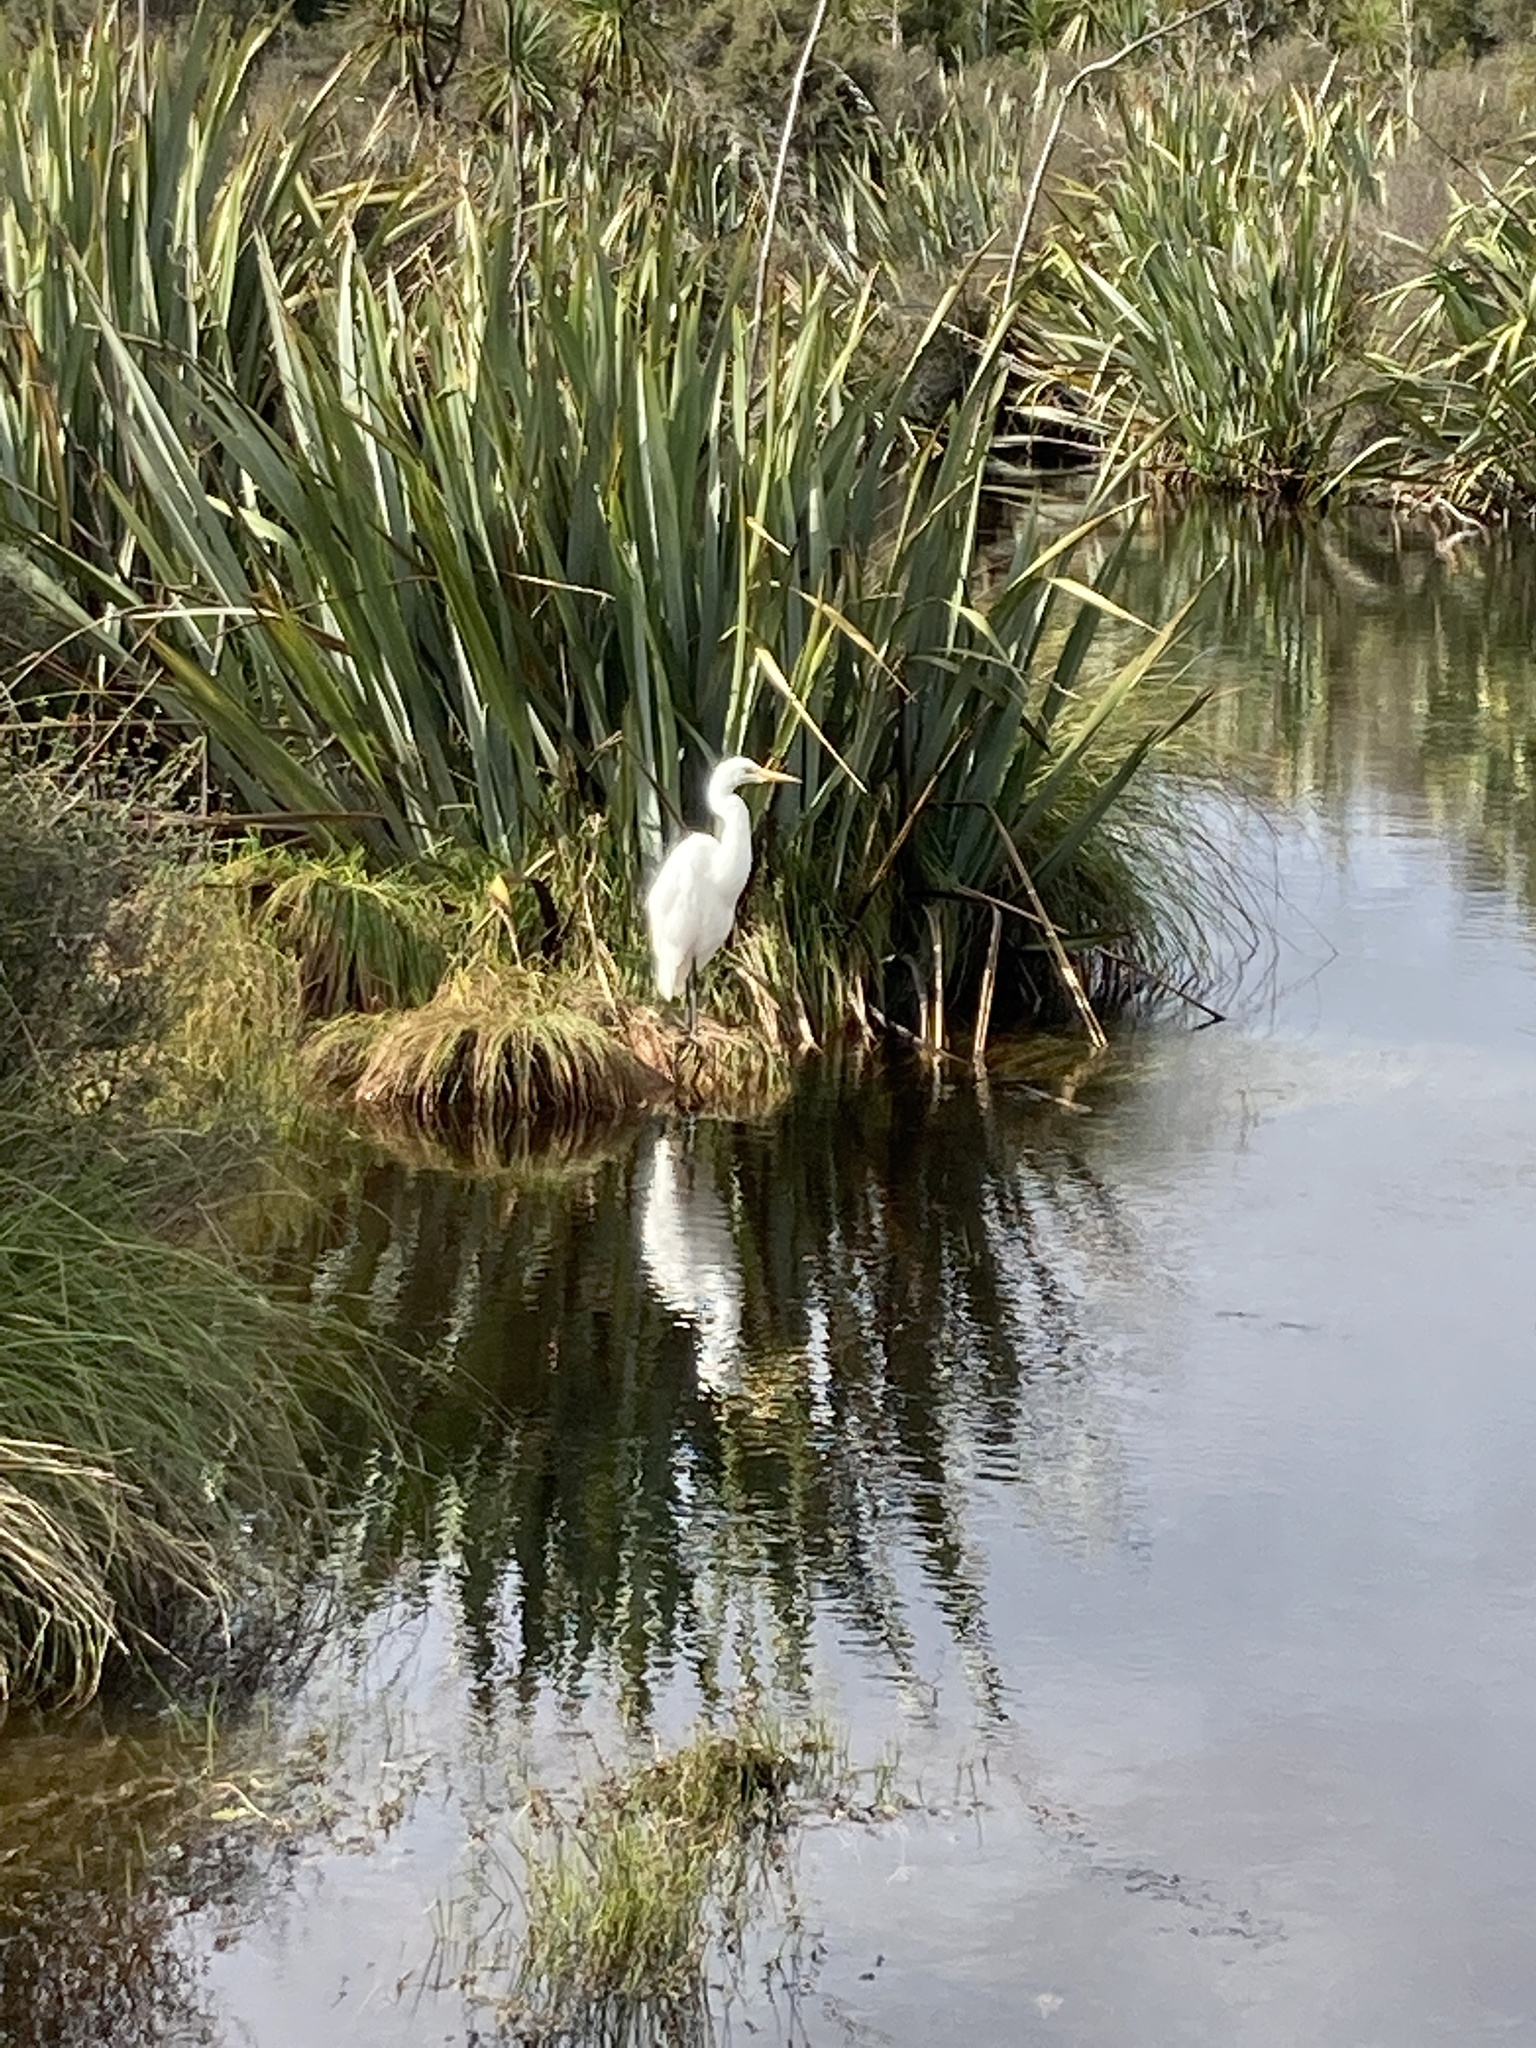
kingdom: Animalia
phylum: Chordata
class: Aves
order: Pelecaniformes
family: Ardeidae
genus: Ardea
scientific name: Ardea modesta
